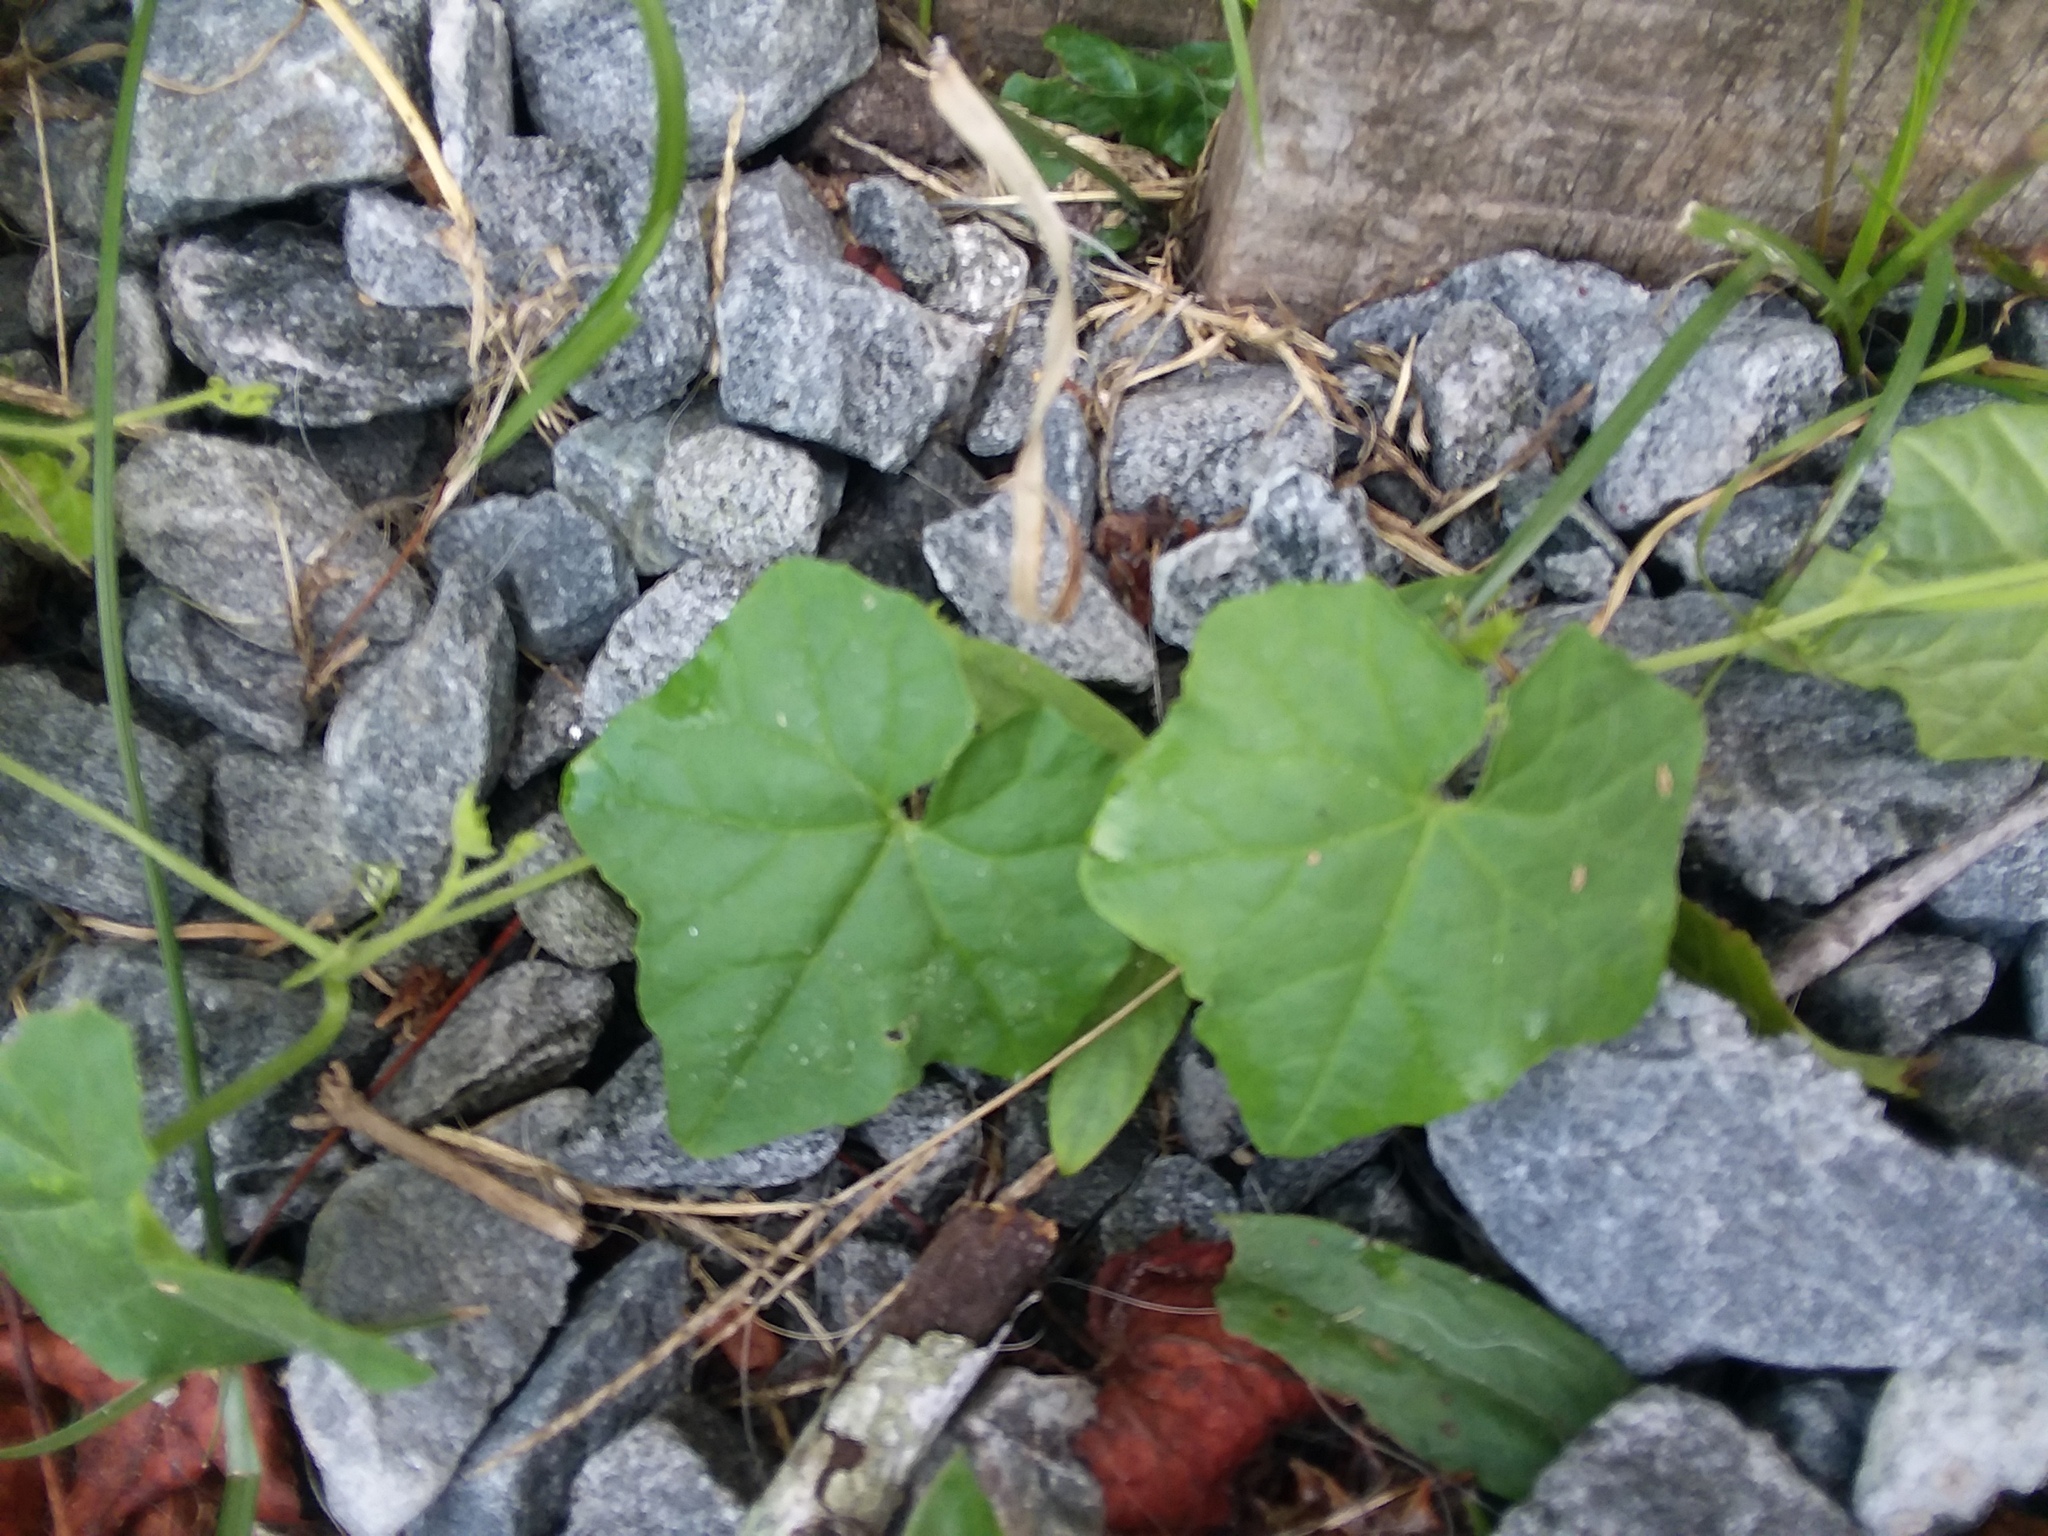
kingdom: Plantae
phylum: Tracheophyta
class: Magnoliopsida
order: Cucurbitales
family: Cucurbitaceae
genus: Melothria
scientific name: Melothria pendula
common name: Creeping-cucumber
